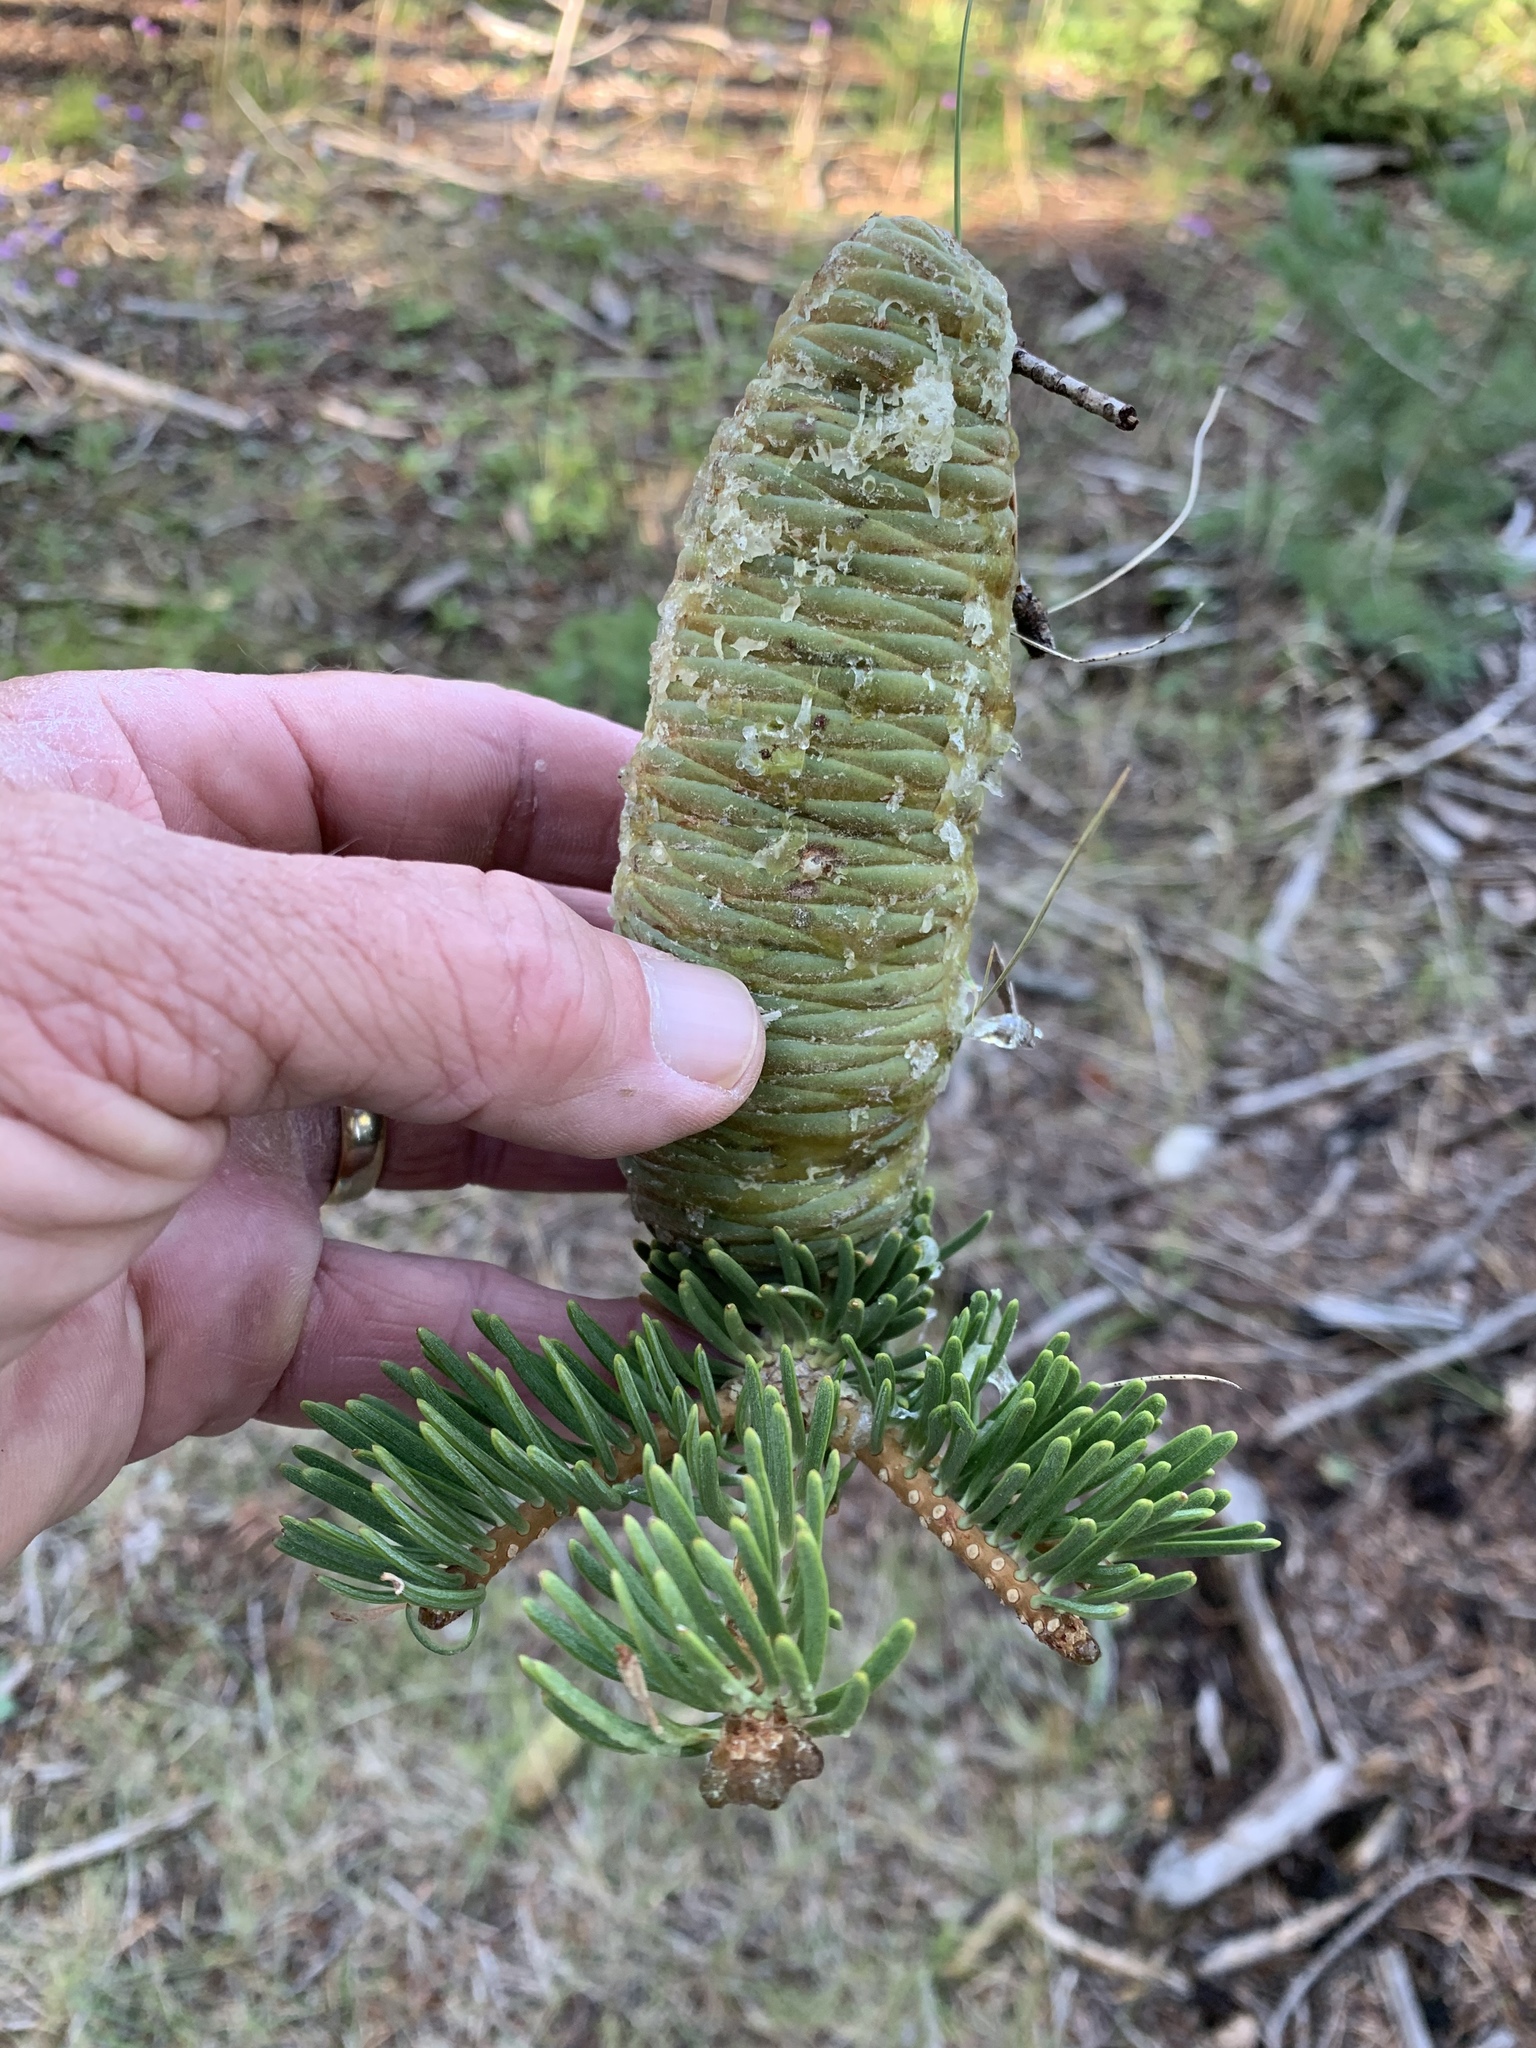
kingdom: Plantae
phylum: Tracheophyta
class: Pinopsida
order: Pinales
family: Pinaceae
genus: Abies
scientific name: Abies concolor
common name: Colorado fir
